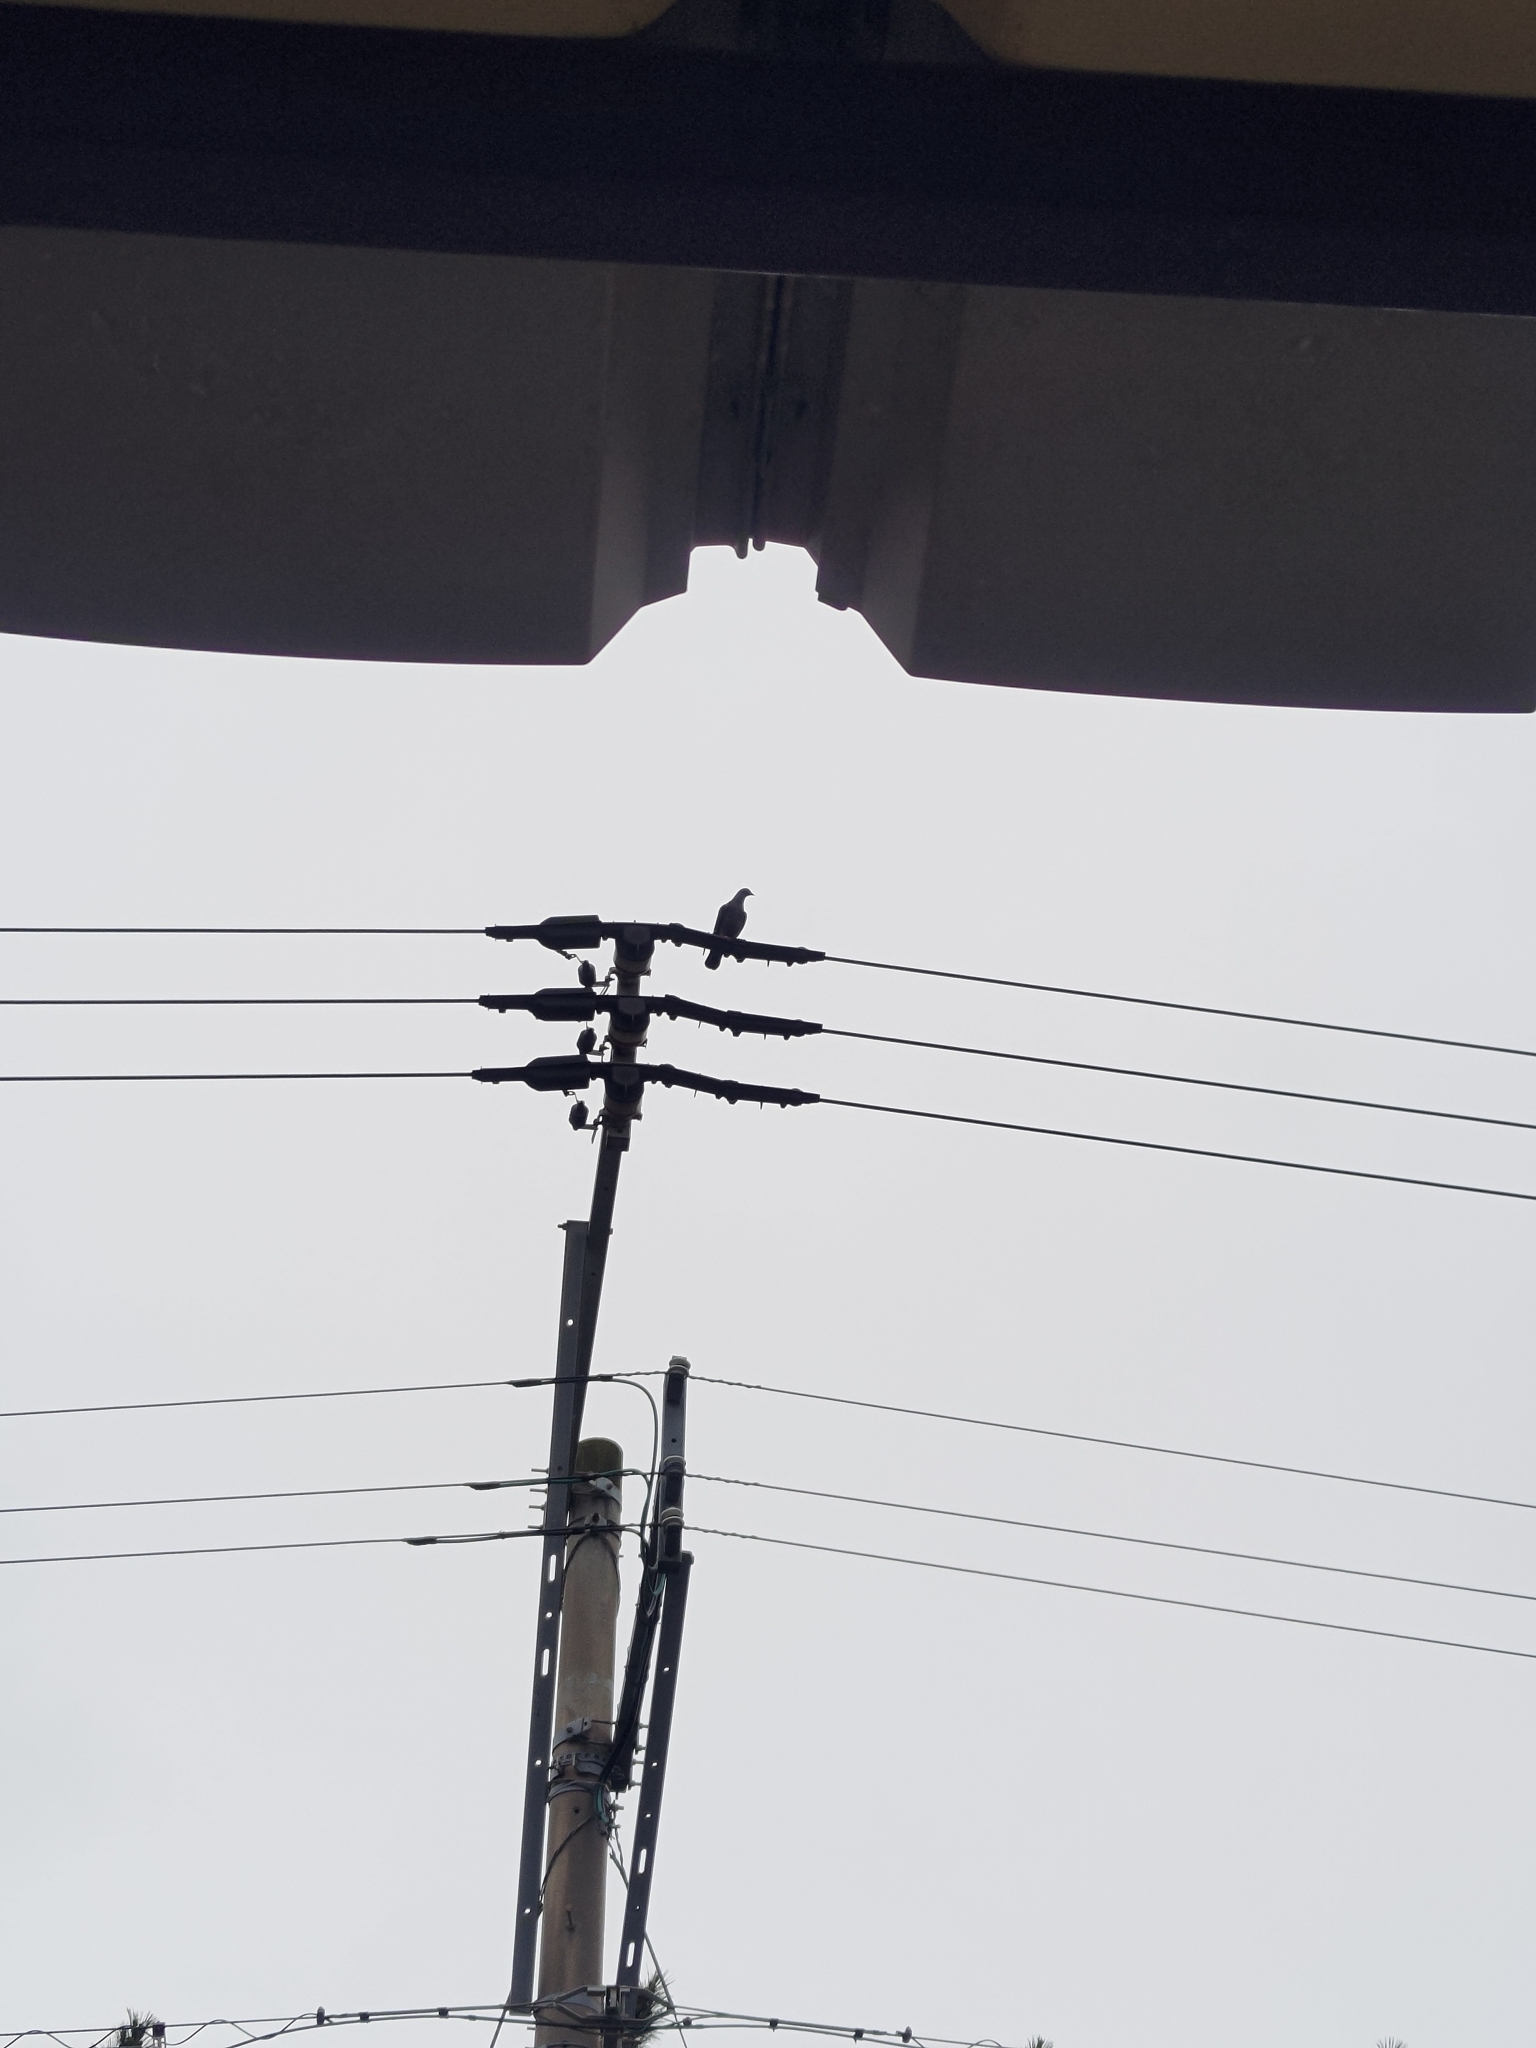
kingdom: Animalia
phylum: Chordata
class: Aves
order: Columbiformes
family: Columbidae
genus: Columba
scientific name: Columba livia
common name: Rock pigeon
